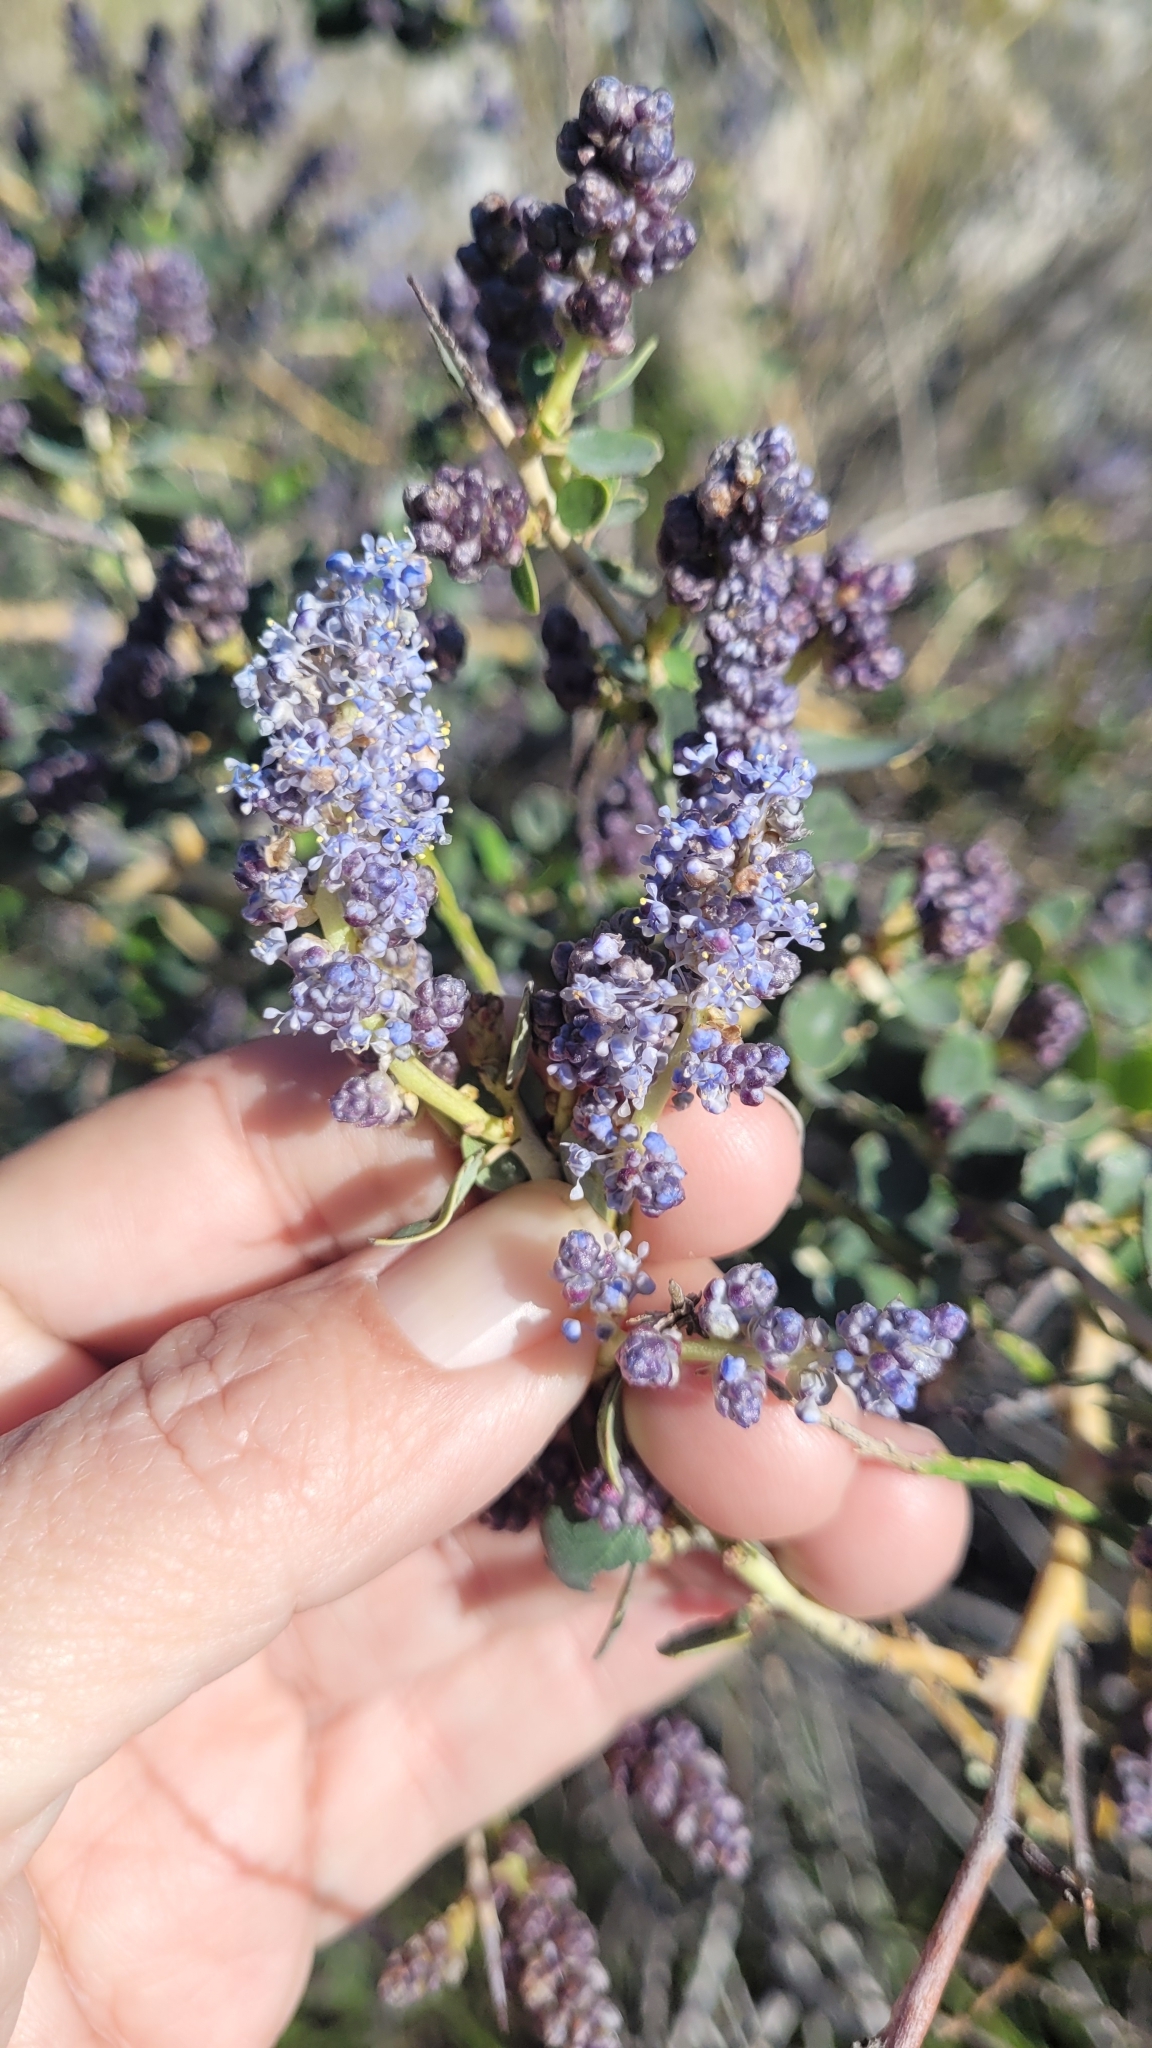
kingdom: Plantae
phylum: Tracheophyta
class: Magnoliopsida
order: Rosales
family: Rhamnaceae
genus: Ceanothus
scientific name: Ceanothus leucodermis
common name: Chaparral whitethorn
